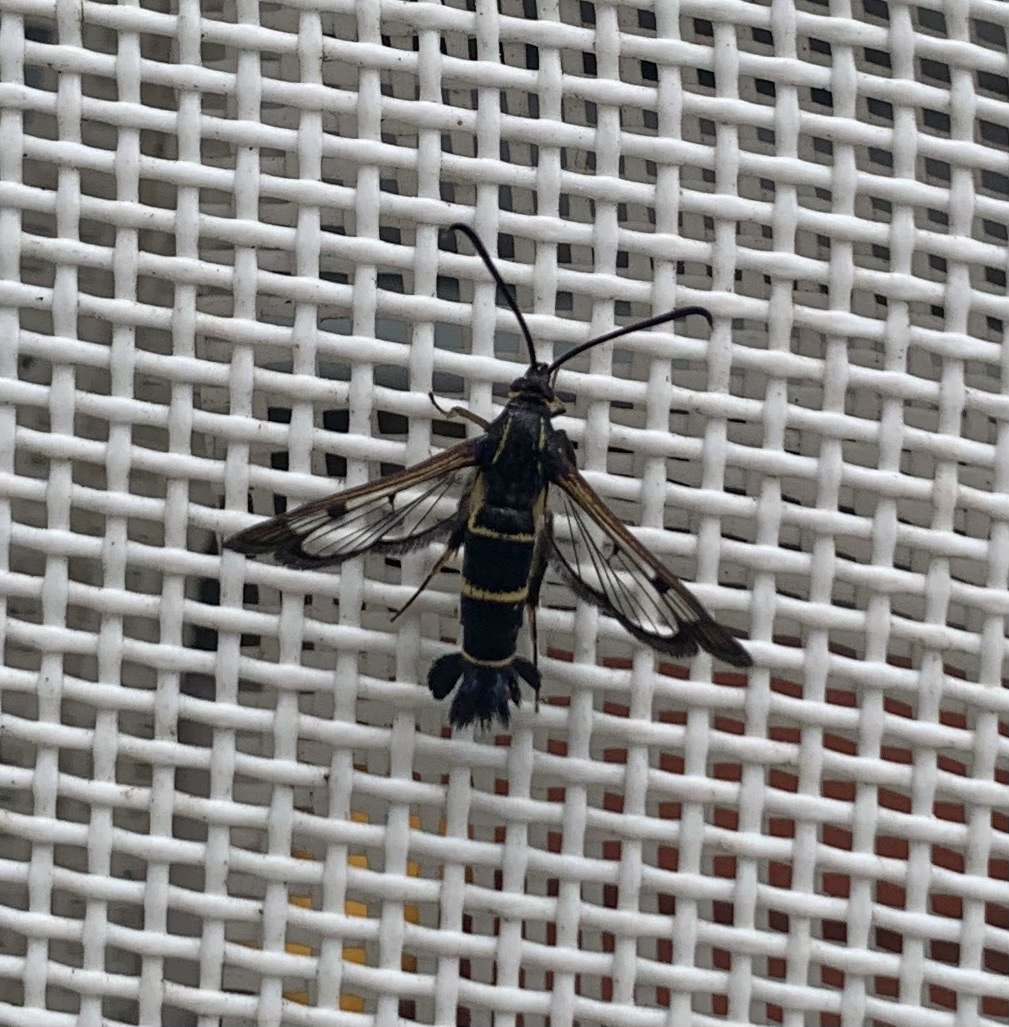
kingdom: Animalia
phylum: Arthropoda
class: Insecta
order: Lepidoptera
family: Sesiidae
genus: Synanthedon
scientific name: Synanthedon tipuliformis
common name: Currant clearwing
